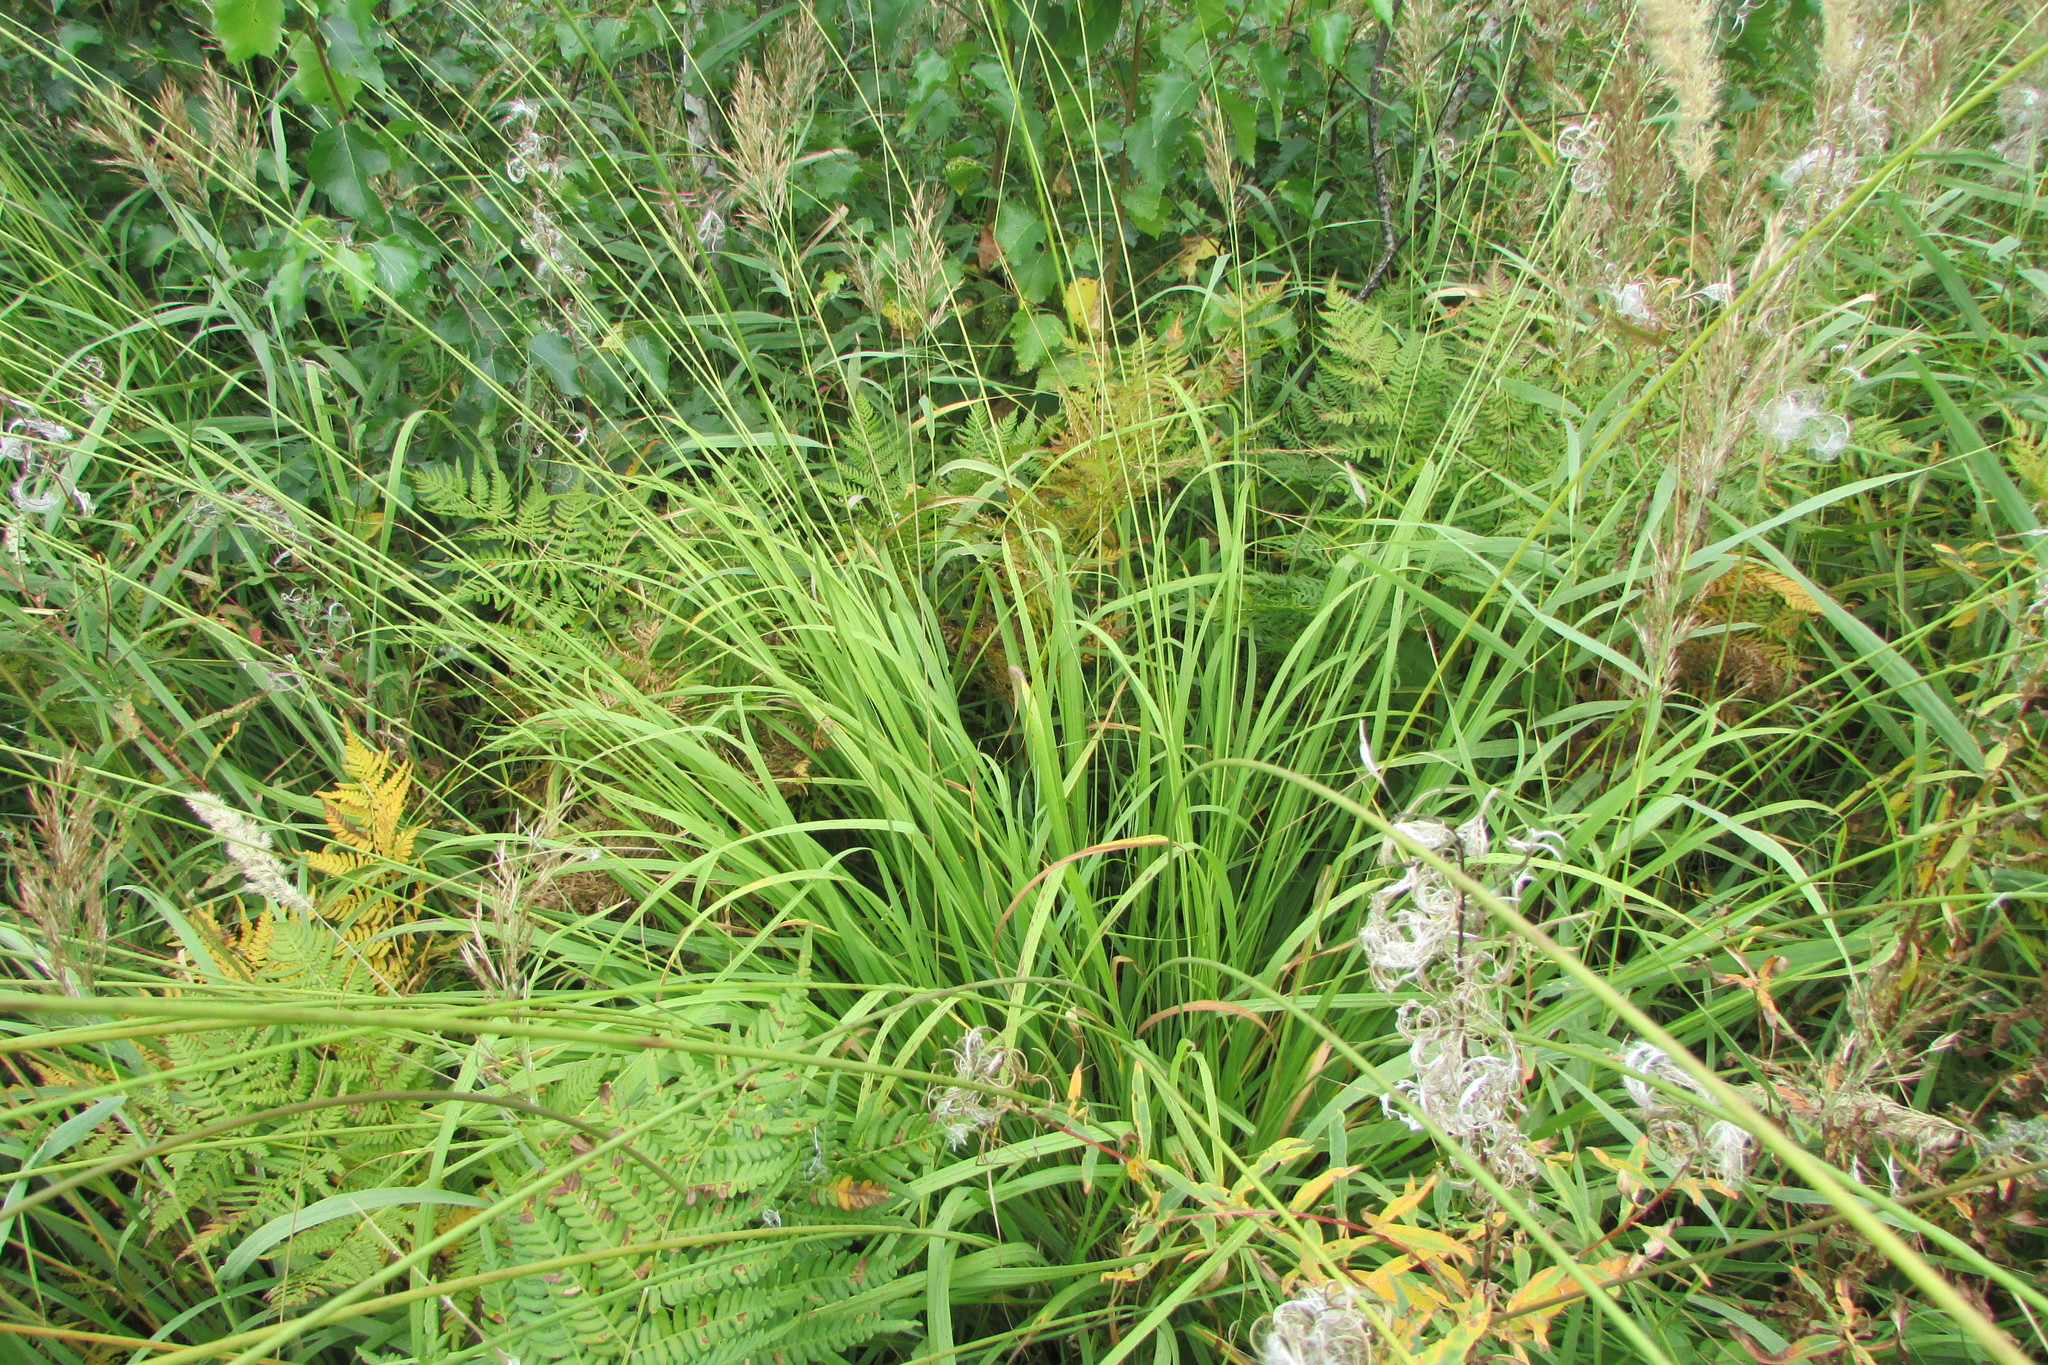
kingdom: Plantae
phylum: Tracheophyta
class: Liliopsida
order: Poales
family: Poaceae
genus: Molinia
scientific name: Molinia caerulea
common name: Purple moor-grass
